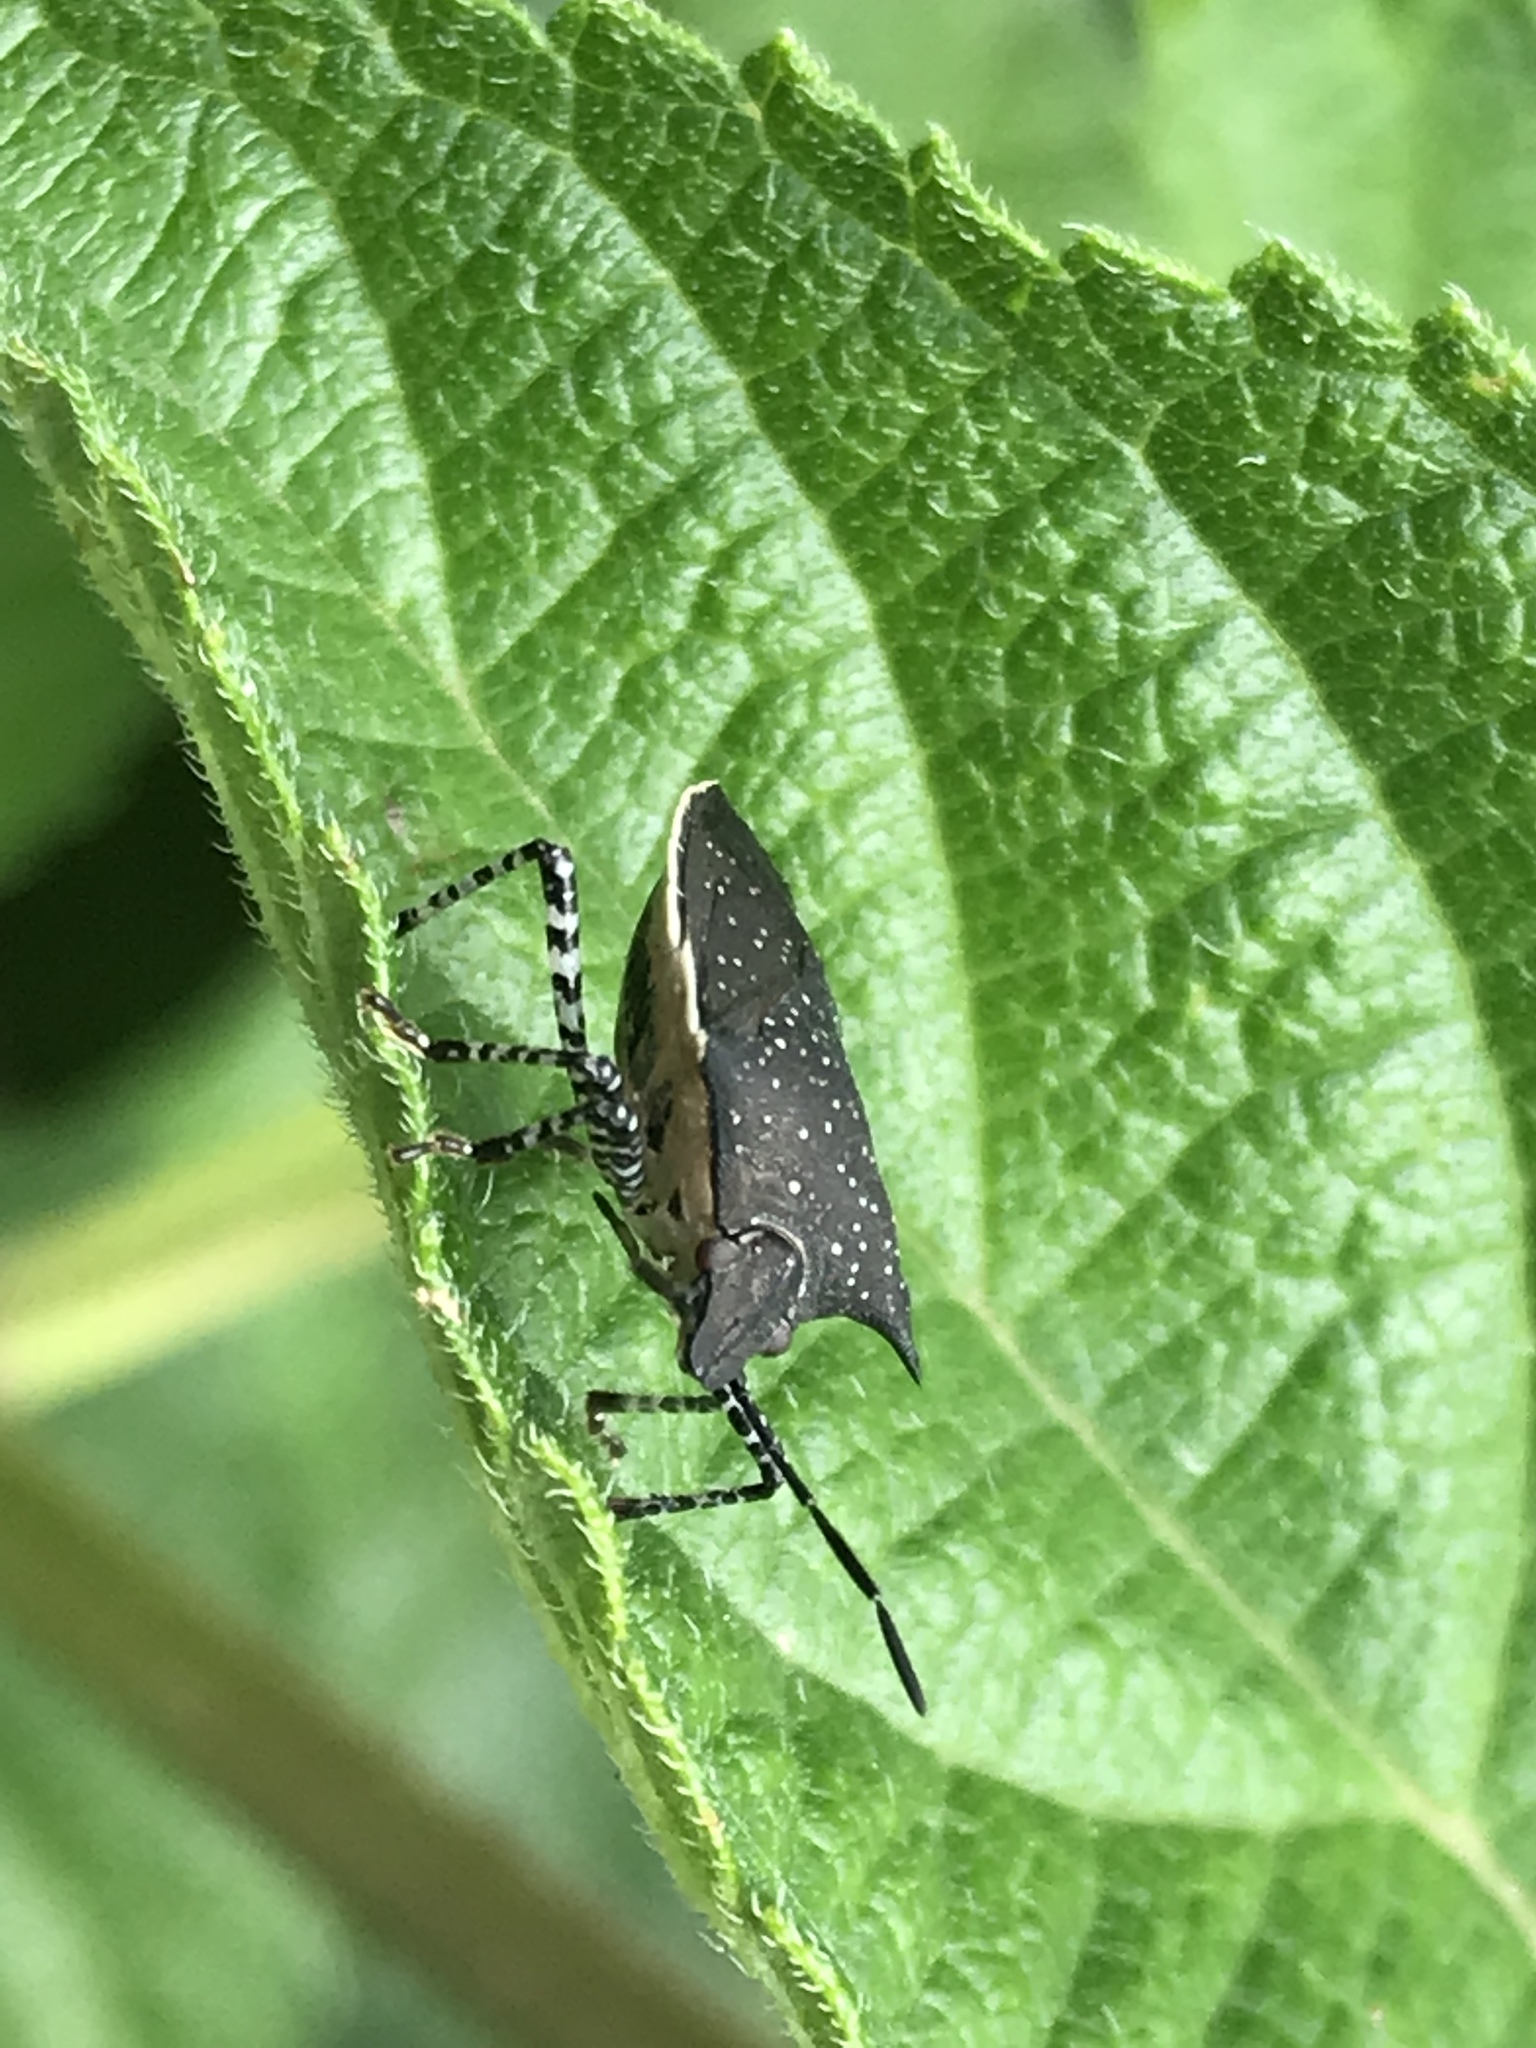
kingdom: Animalia
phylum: Arthropoda
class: Insecta
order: Hemiptera
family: Pentatomidae
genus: Padaeus
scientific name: Padaeus trivittatus
